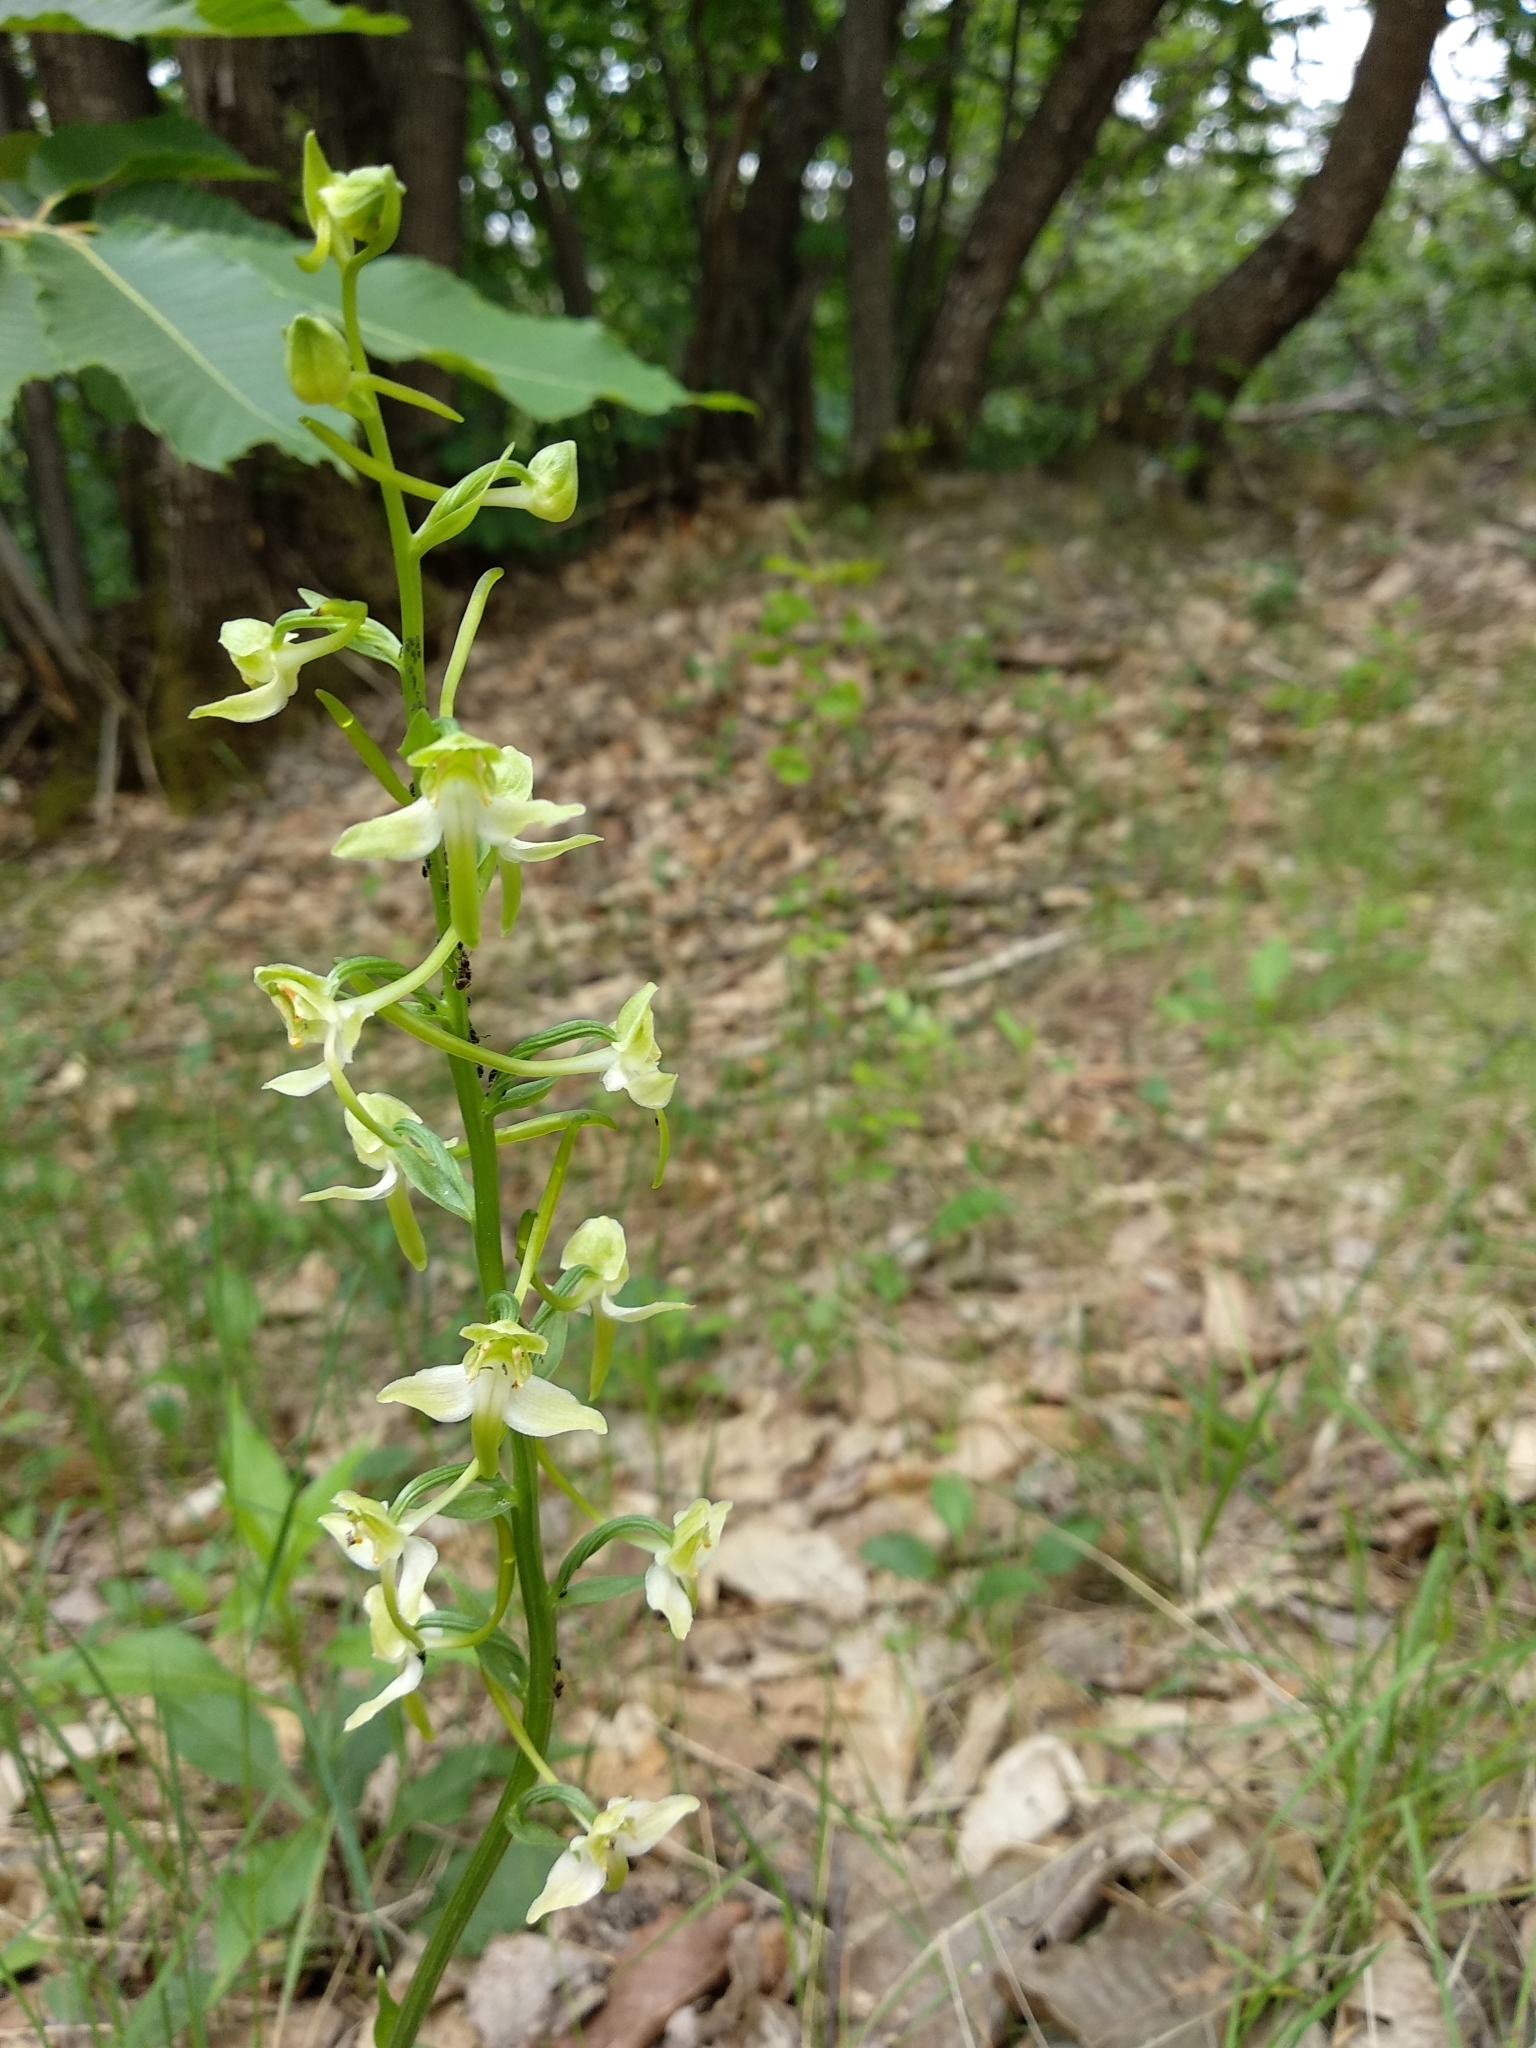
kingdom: Plantae
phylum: Tracheophyta
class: Liliopsida
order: Asparagales
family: Orchidaceae
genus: Platanthera
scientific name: Platanthera chlorantha
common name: Greater butterfly-orchid
